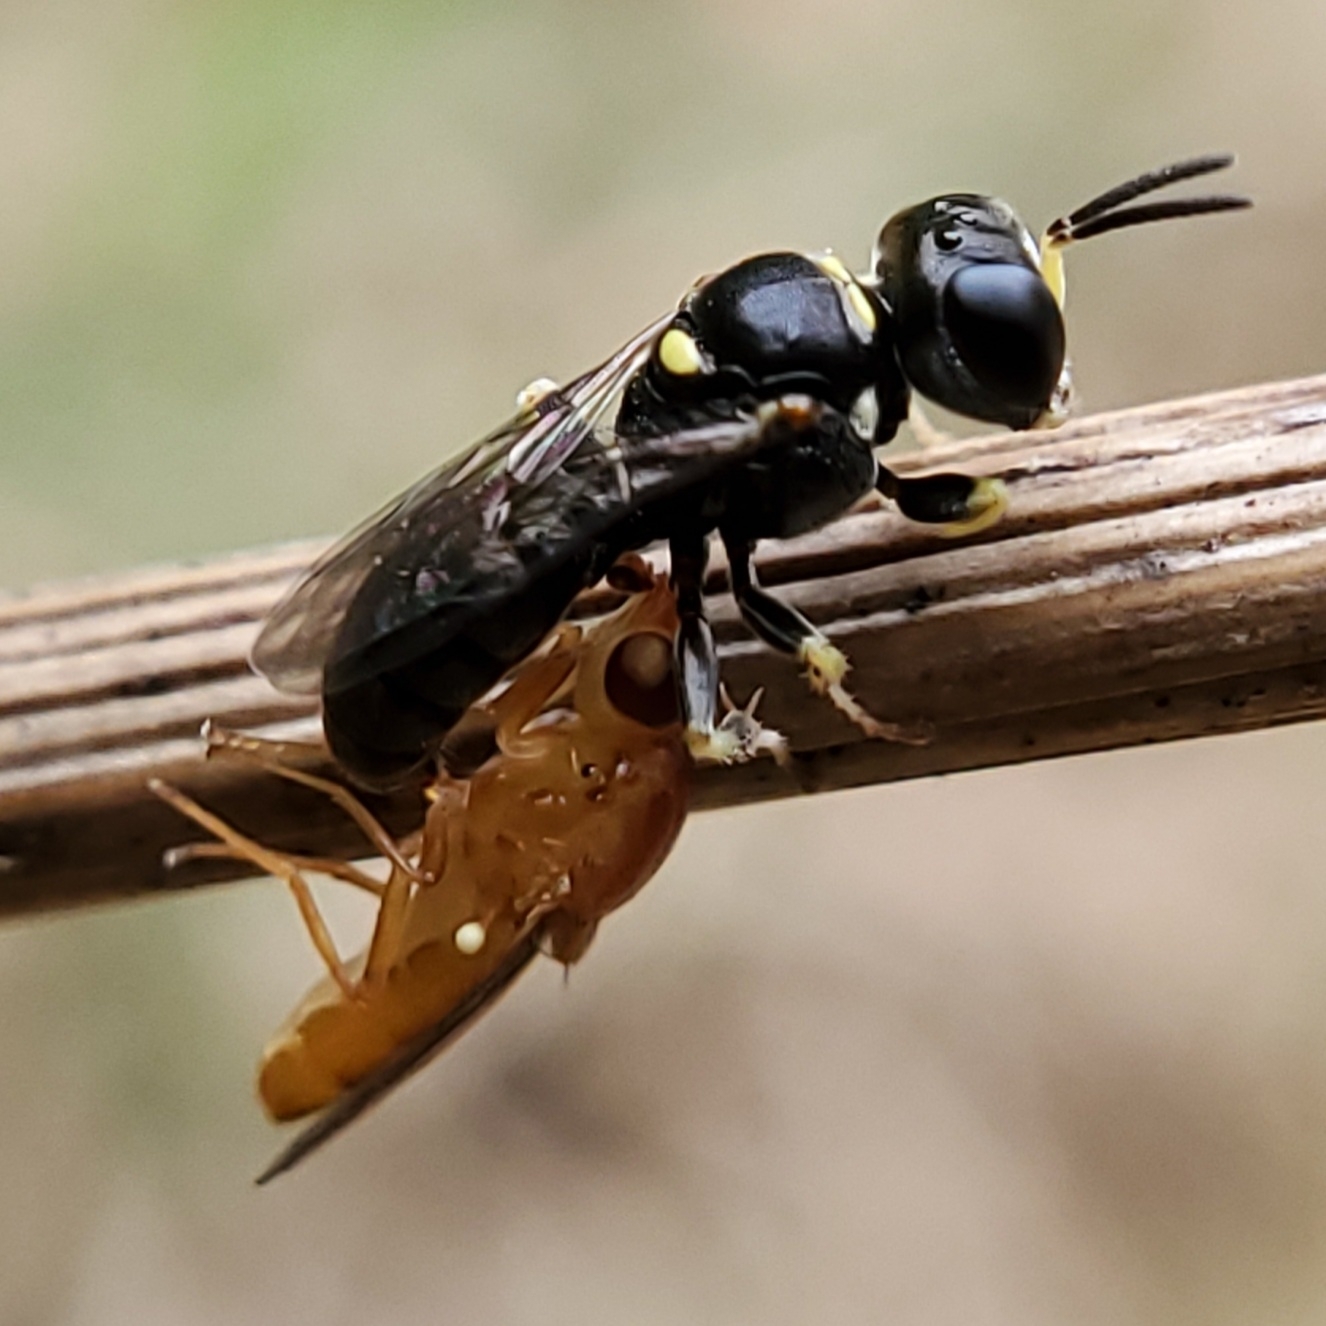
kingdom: Animalia
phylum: Arthropoda
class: Insecta
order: Hymenoptera
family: Crabronidae
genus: Lindenius
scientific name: Lindenius
